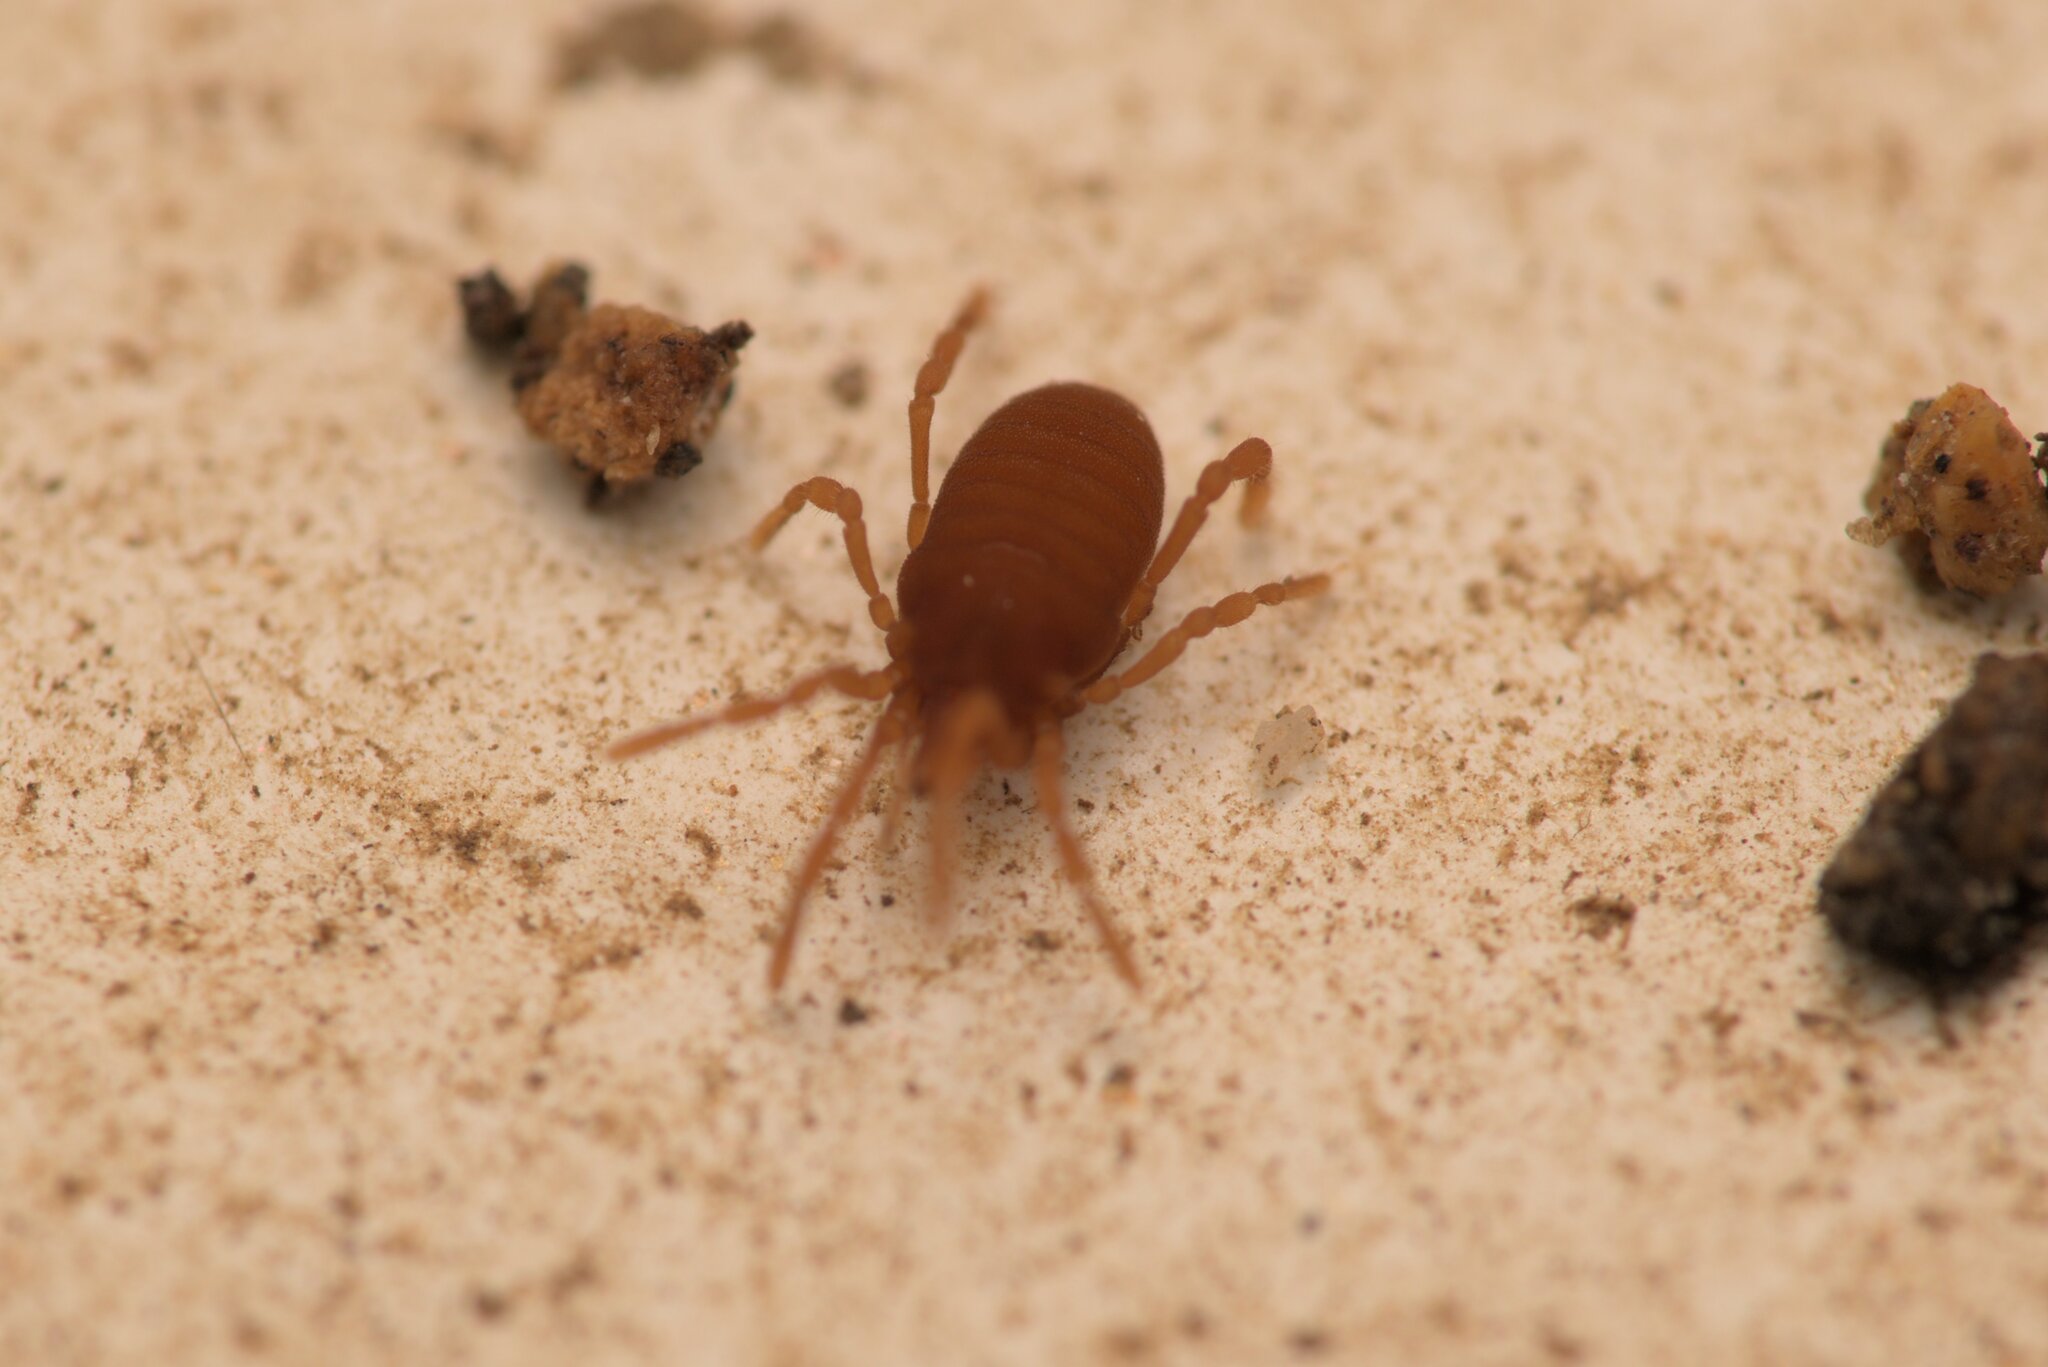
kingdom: Animalia
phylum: Arthropoda
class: Arachnida
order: Opiliones
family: Sironidae
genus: Siro
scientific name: Siro rubens
